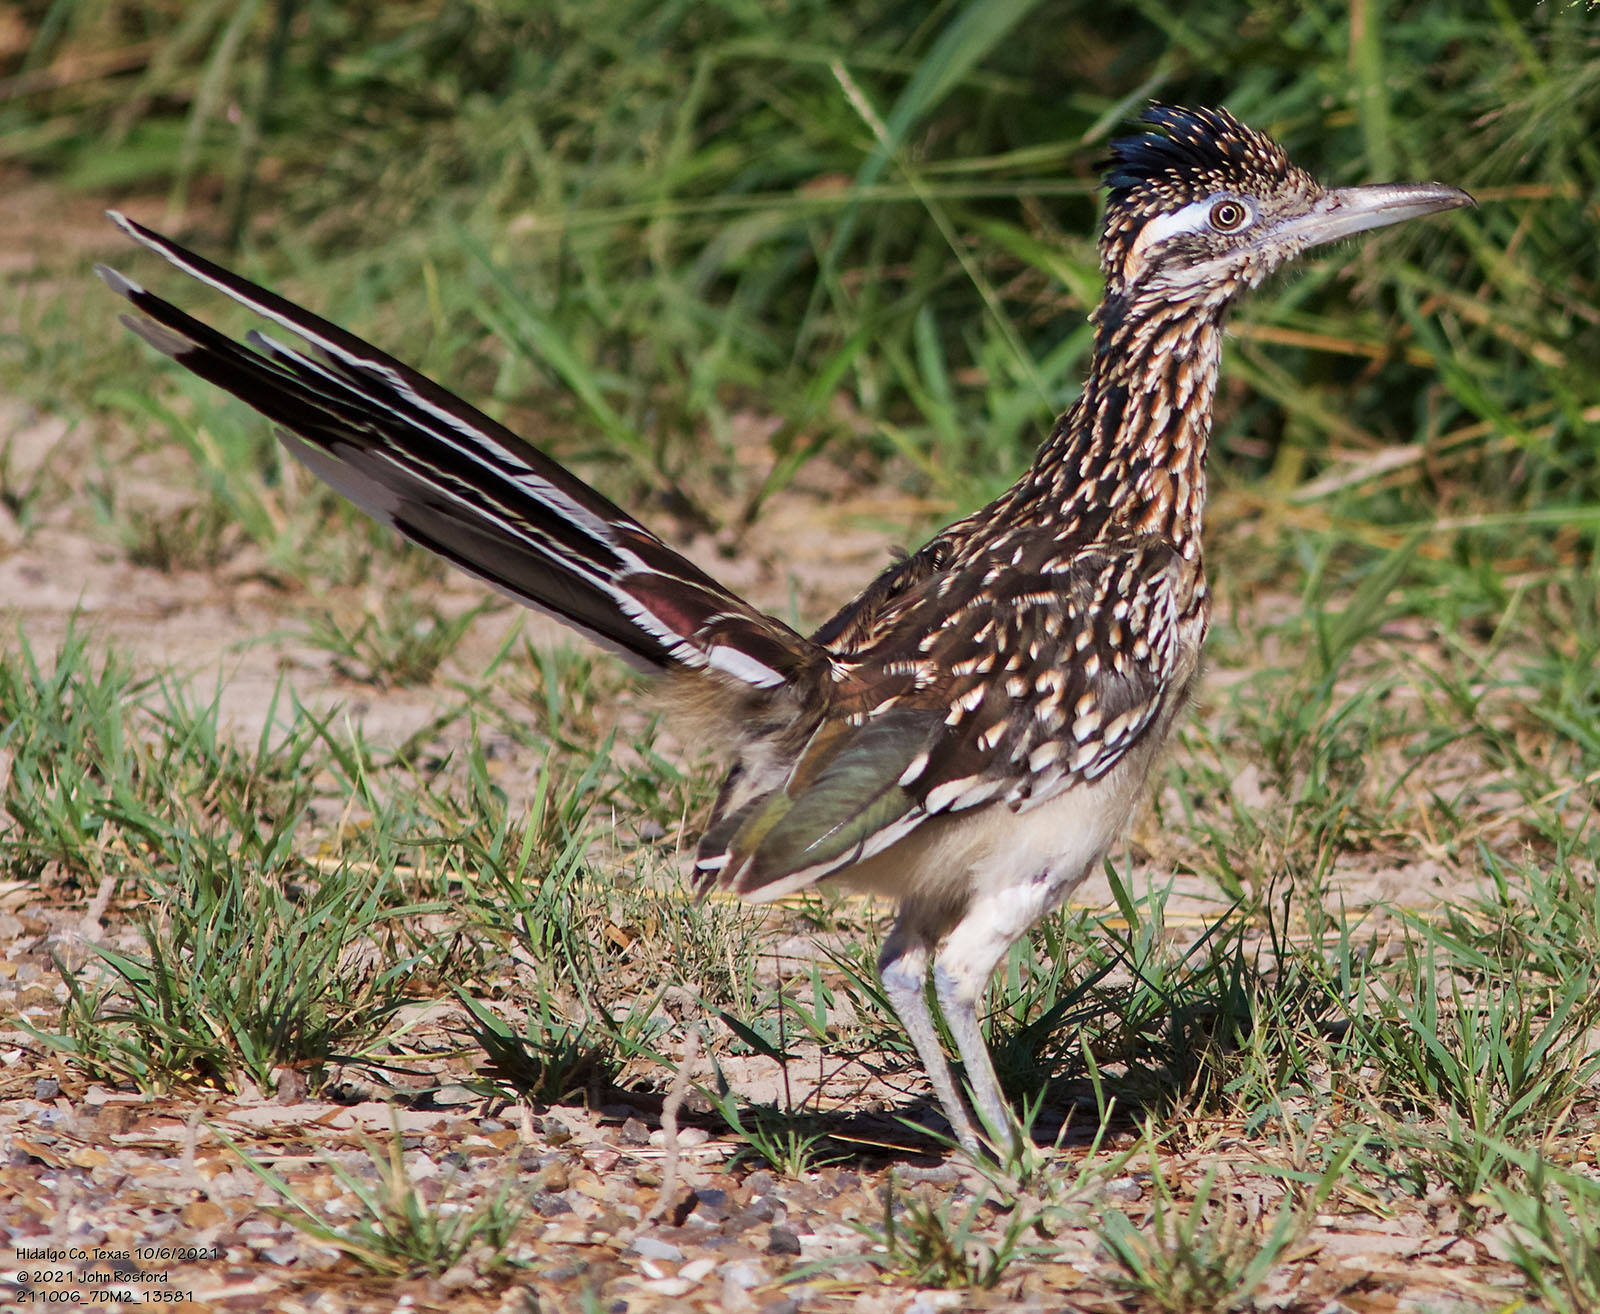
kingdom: Animalia
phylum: Chordata
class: Aves
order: Cuculiformes
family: Cuculidae
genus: Geococcyx
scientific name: Geococcyx californianus
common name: Greater roadrunner
